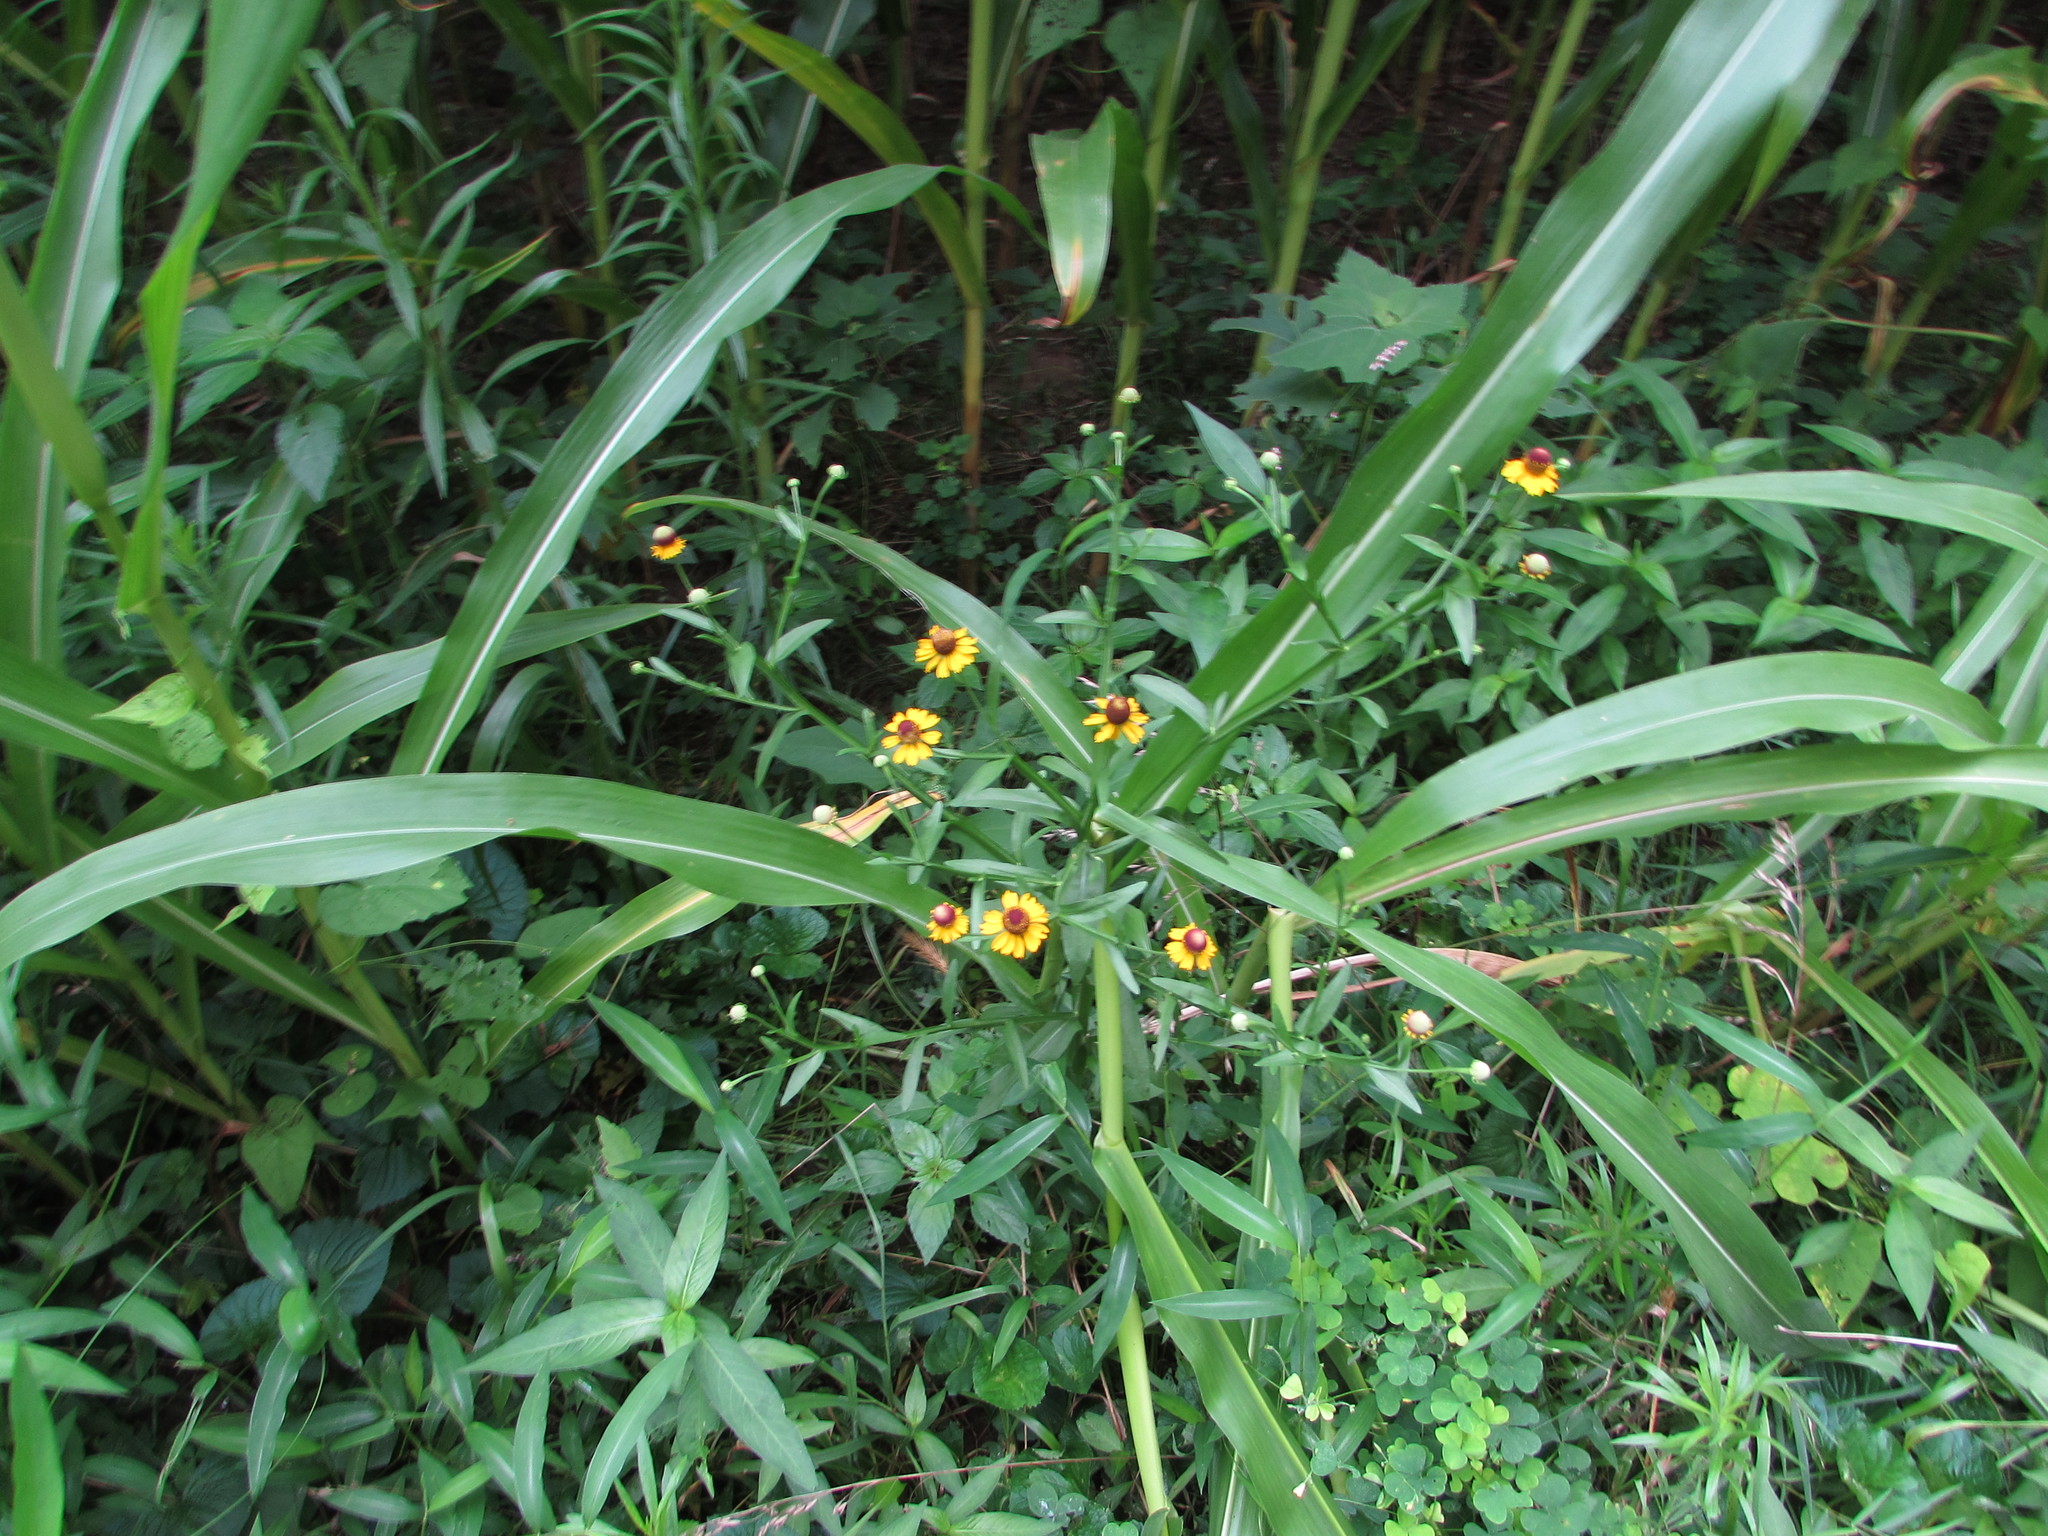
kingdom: Plantae
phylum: Tracheophyta
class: Magnoliopsida
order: Asterales
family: Asteraceae
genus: Helenium
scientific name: Helenium flexuosum
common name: Naked-flowered sneezeweed
